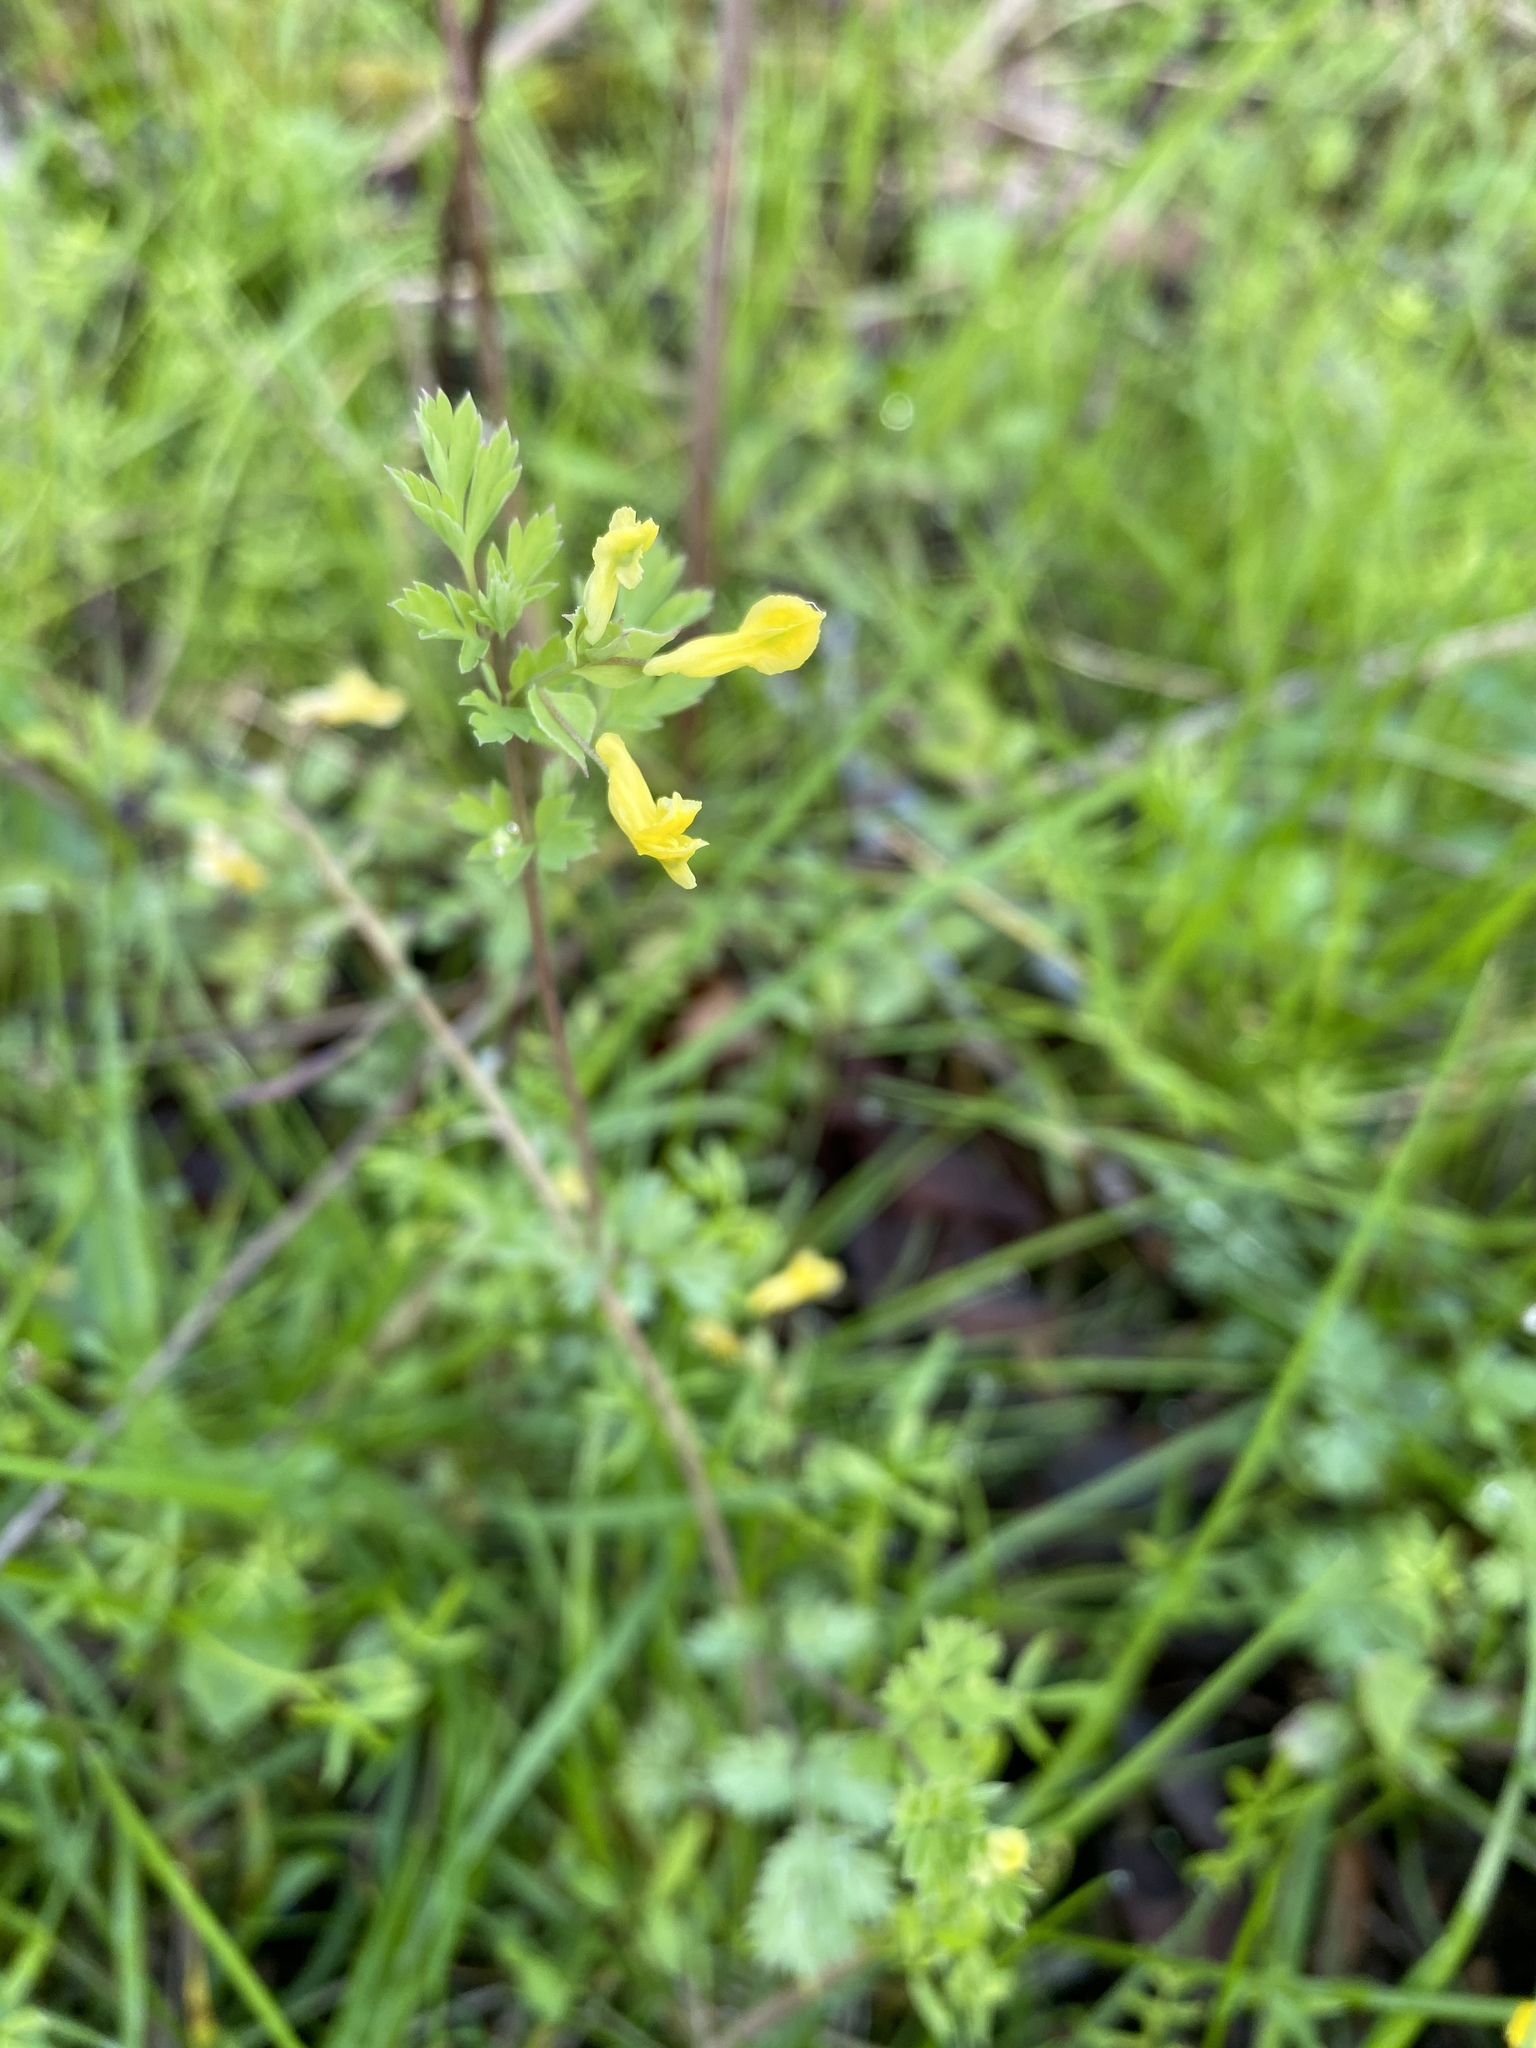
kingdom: Plantae
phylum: Tracheophyta
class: Magnoliopsida
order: Ranunculales
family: Papaveraceae
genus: Corydalis
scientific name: Corydalis flavula
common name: Yellow corydalis
